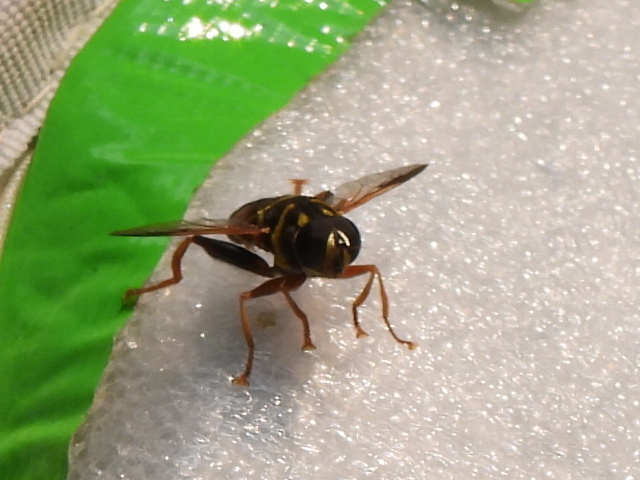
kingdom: Animalia
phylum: Arthropoda
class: Insecta
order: Diptera
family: Syrphidae
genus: Meromacrus
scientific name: Meromacrus acutus
